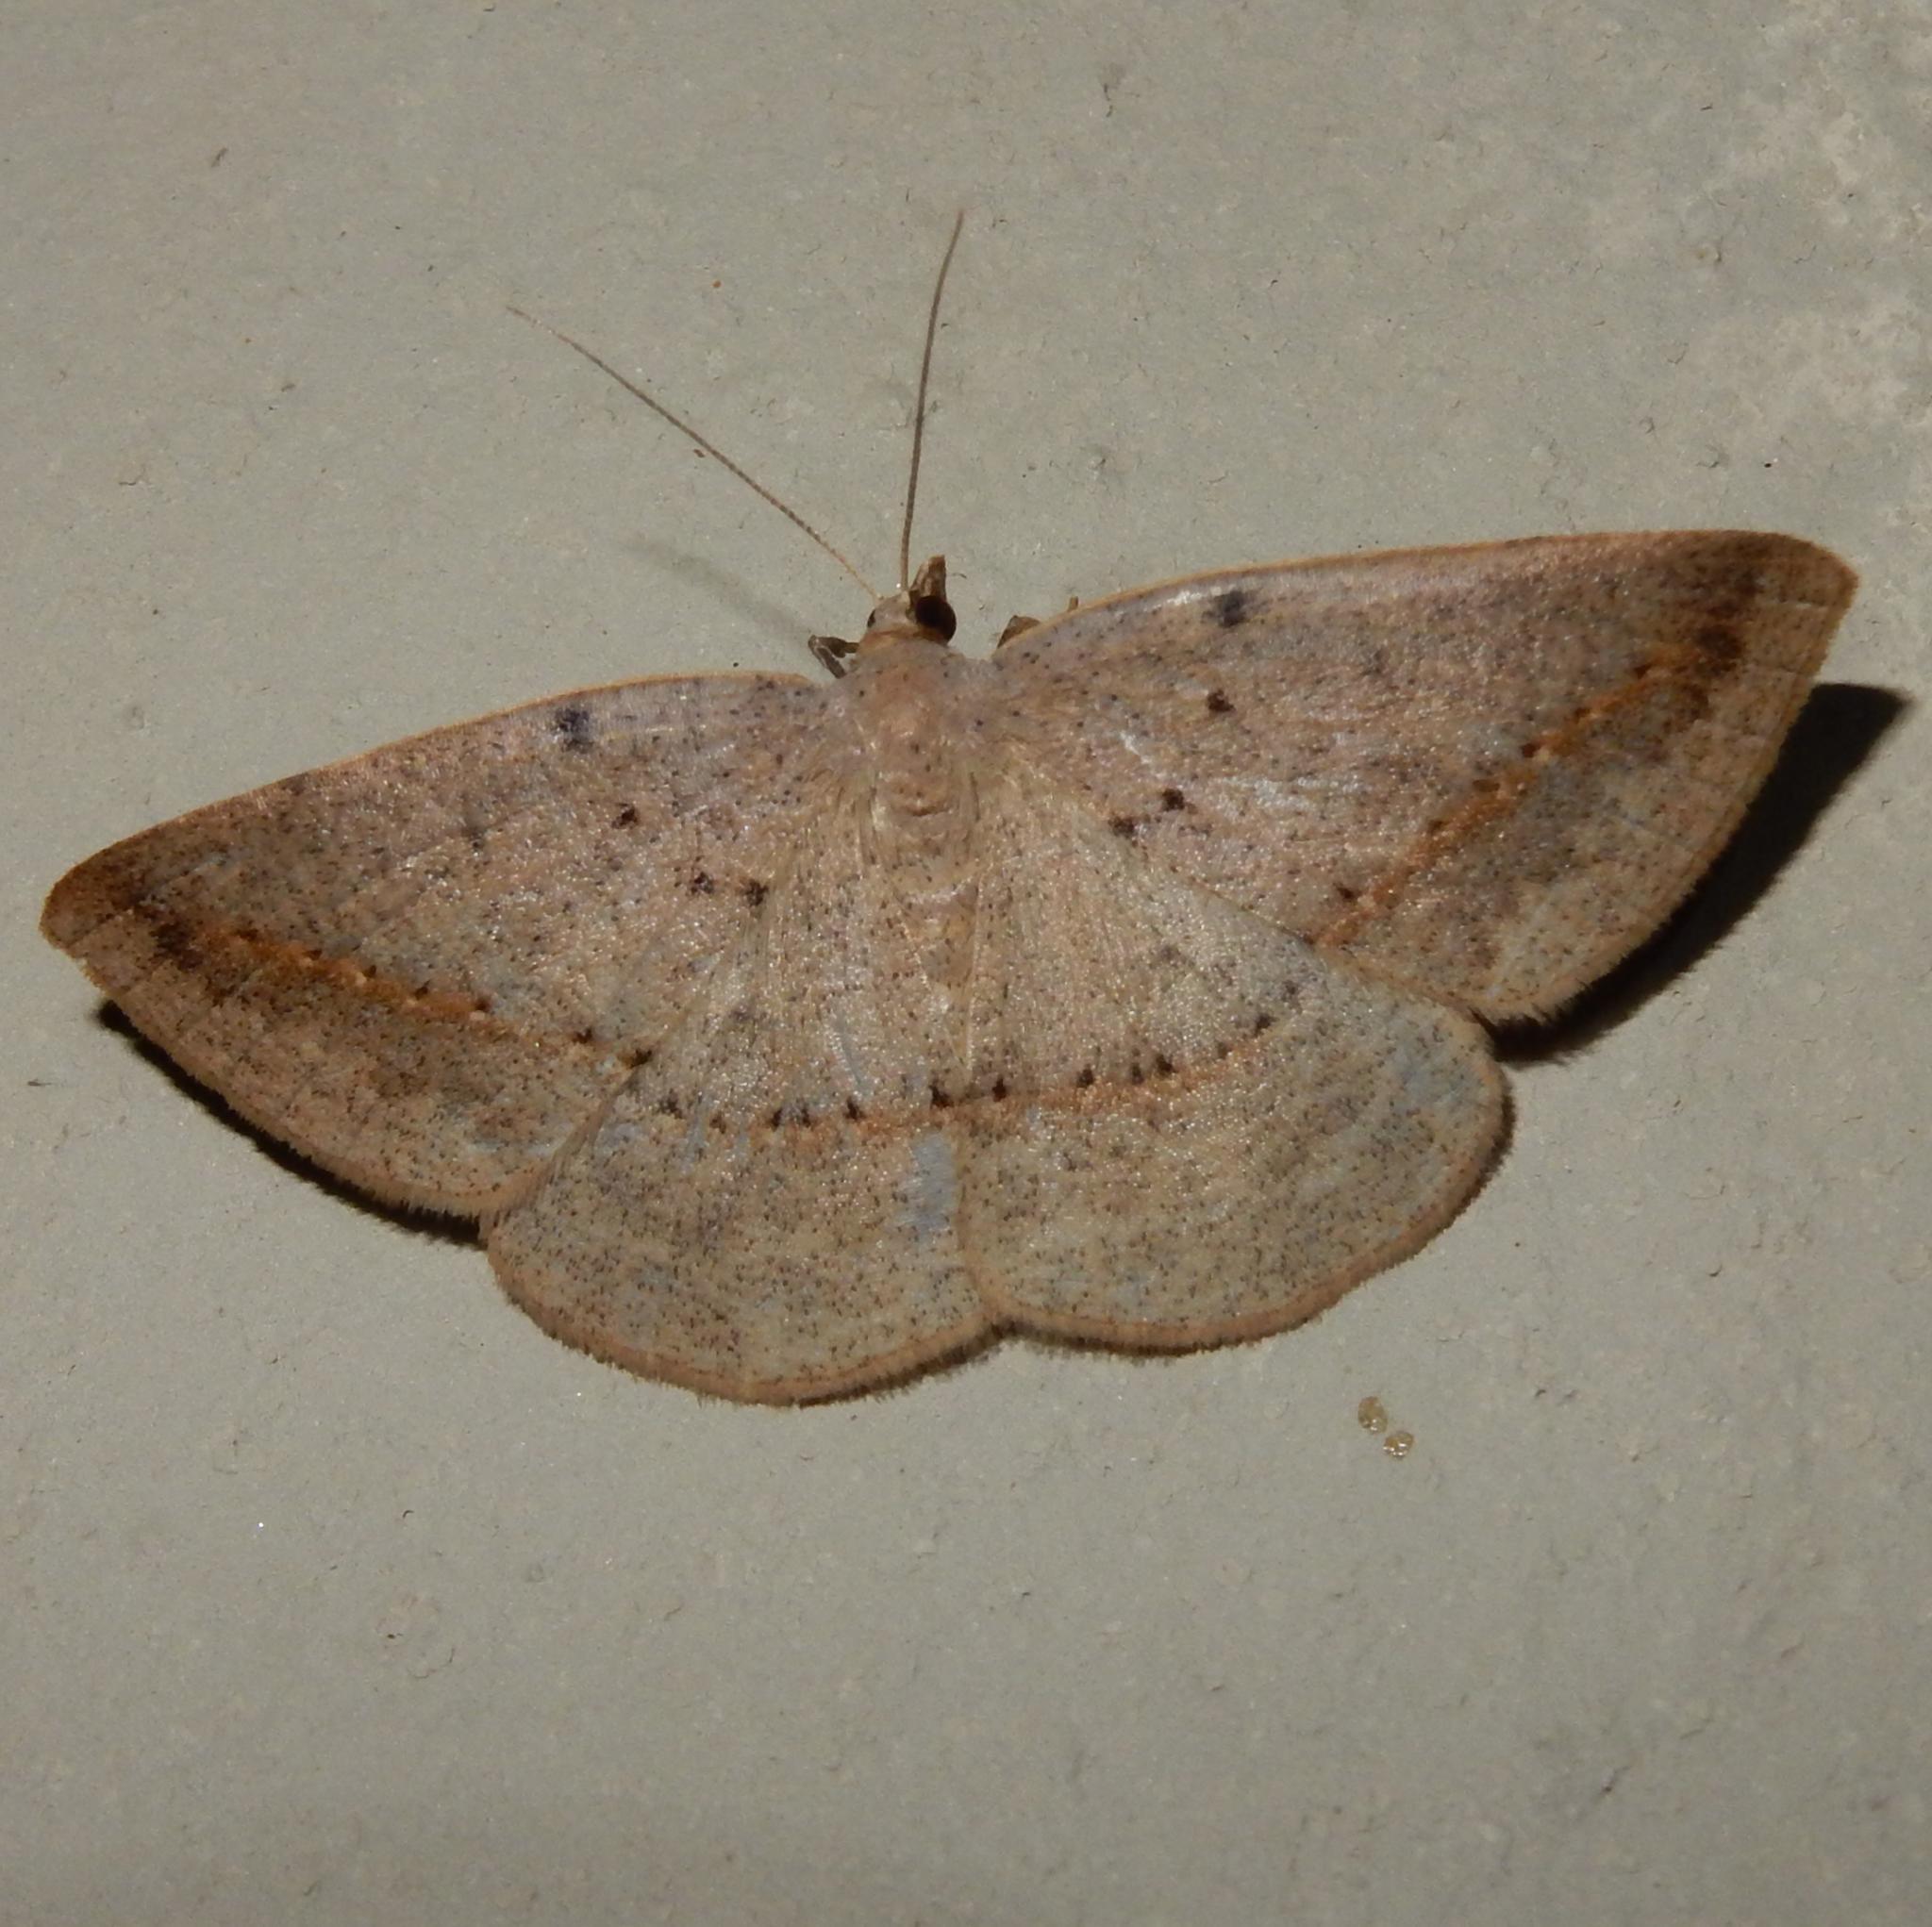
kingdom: Animalia
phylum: Arthropoda
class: Insecta
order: Lepidoptera
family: Geometridae
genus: Conolophia
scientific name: Conolophia aemula
